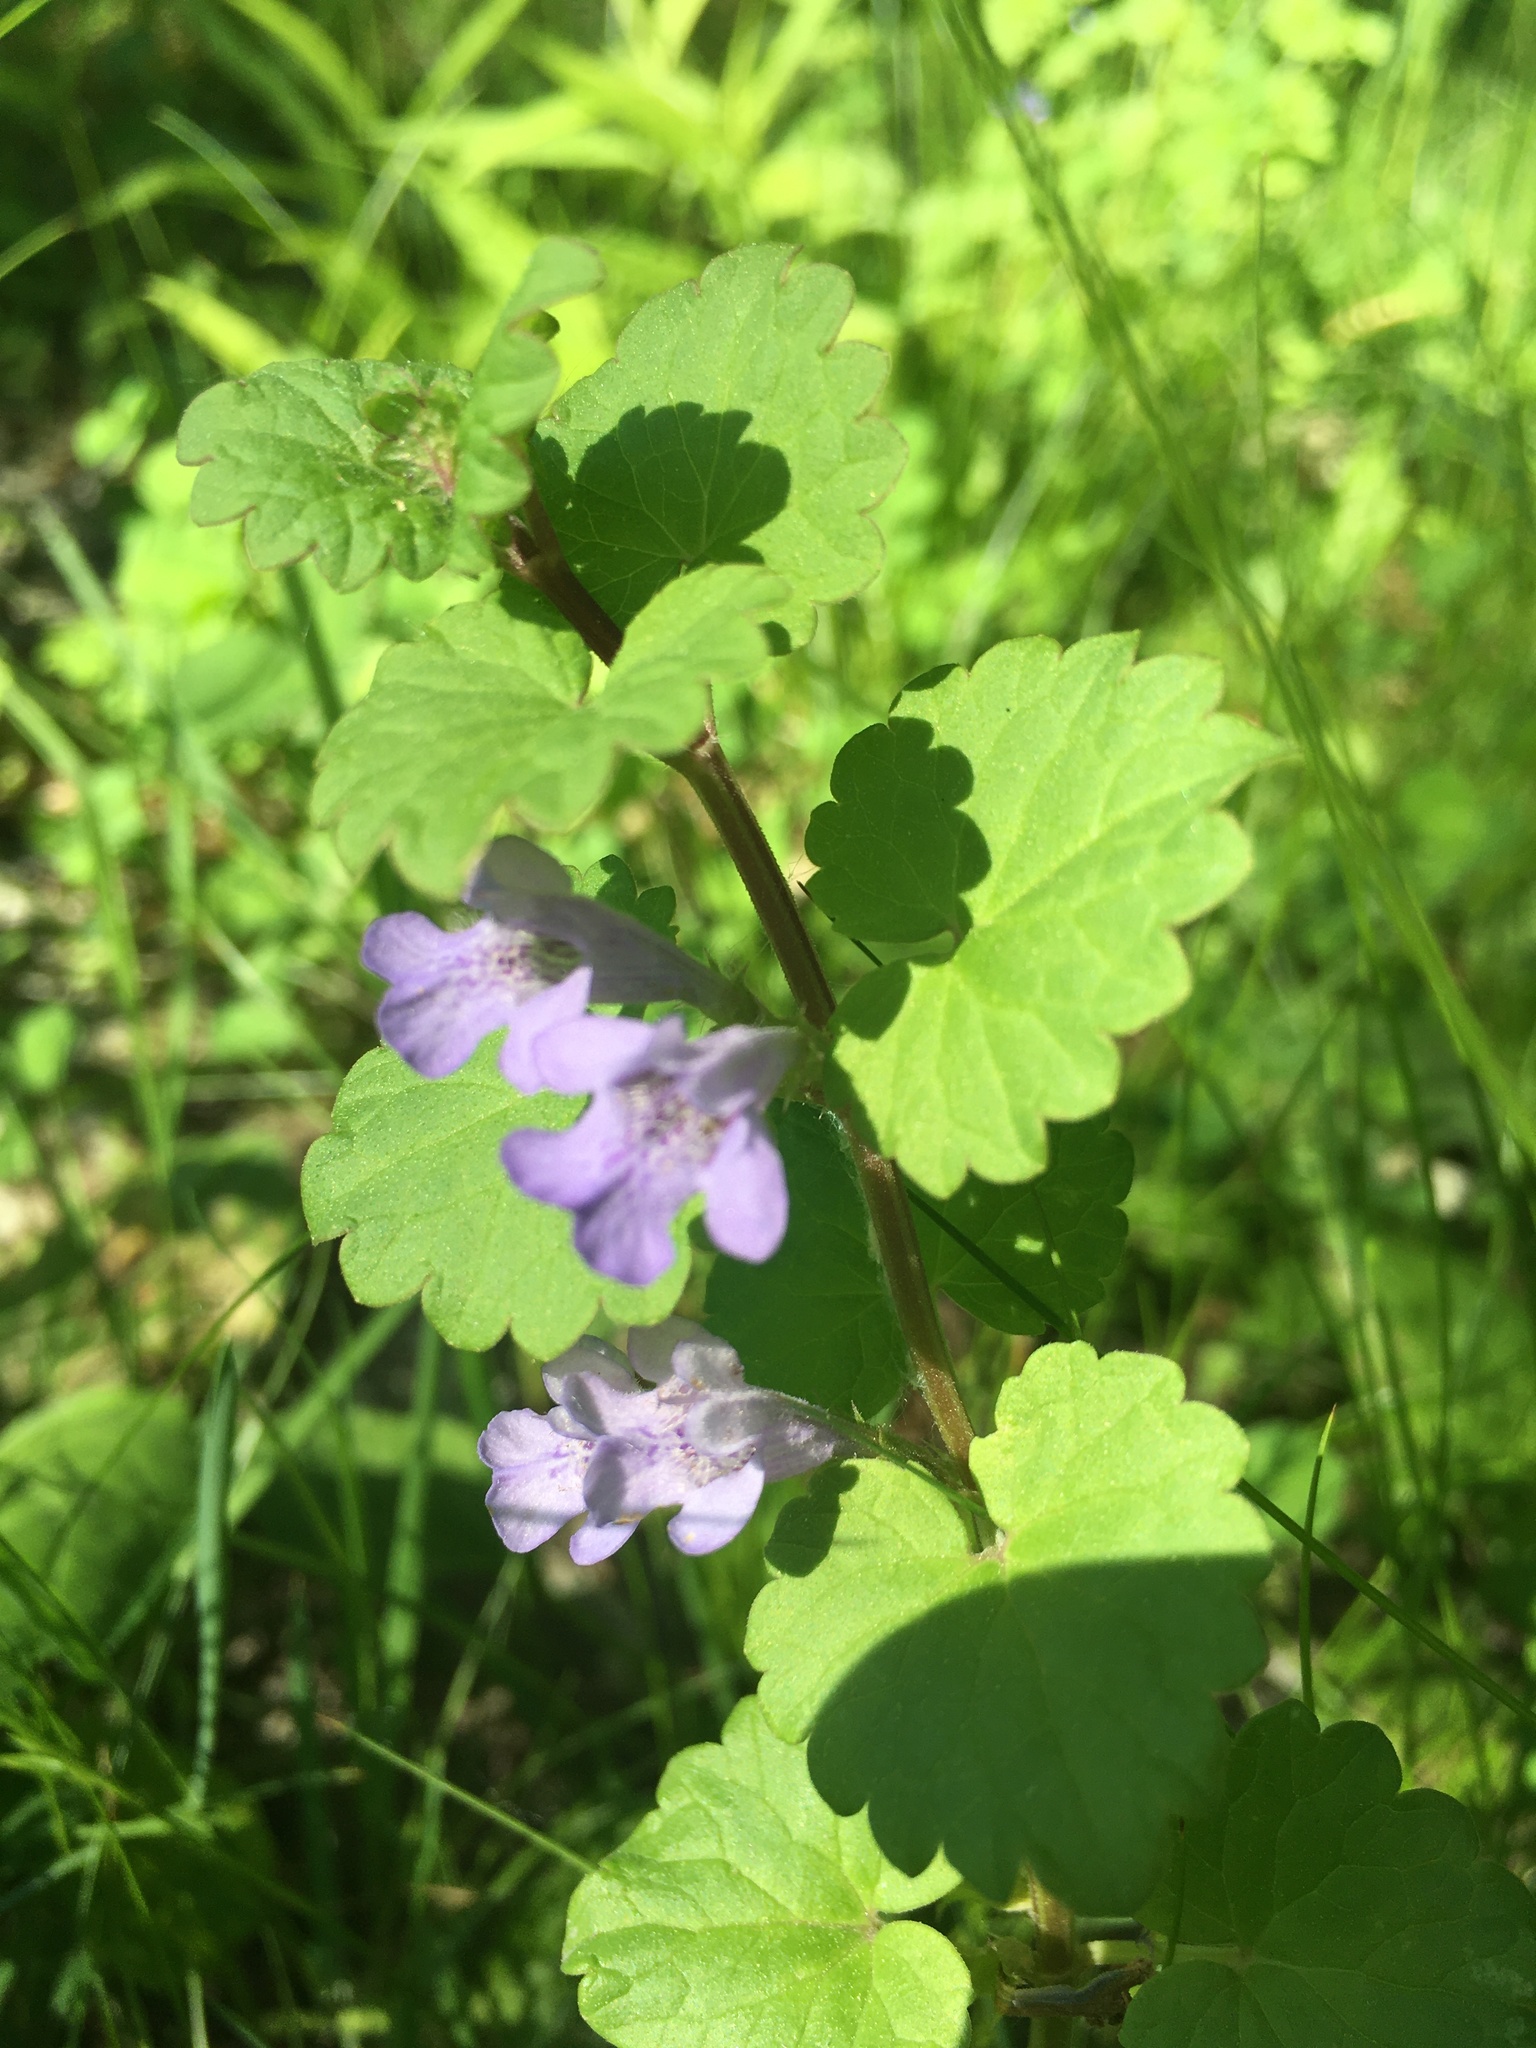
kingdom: Plantae
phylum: Tracheophyta
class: Magnoliopsida
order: Lamiales
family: Lamiaceae
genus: Glechoma
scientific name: Glechoma hederacea
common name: Ground ivy
